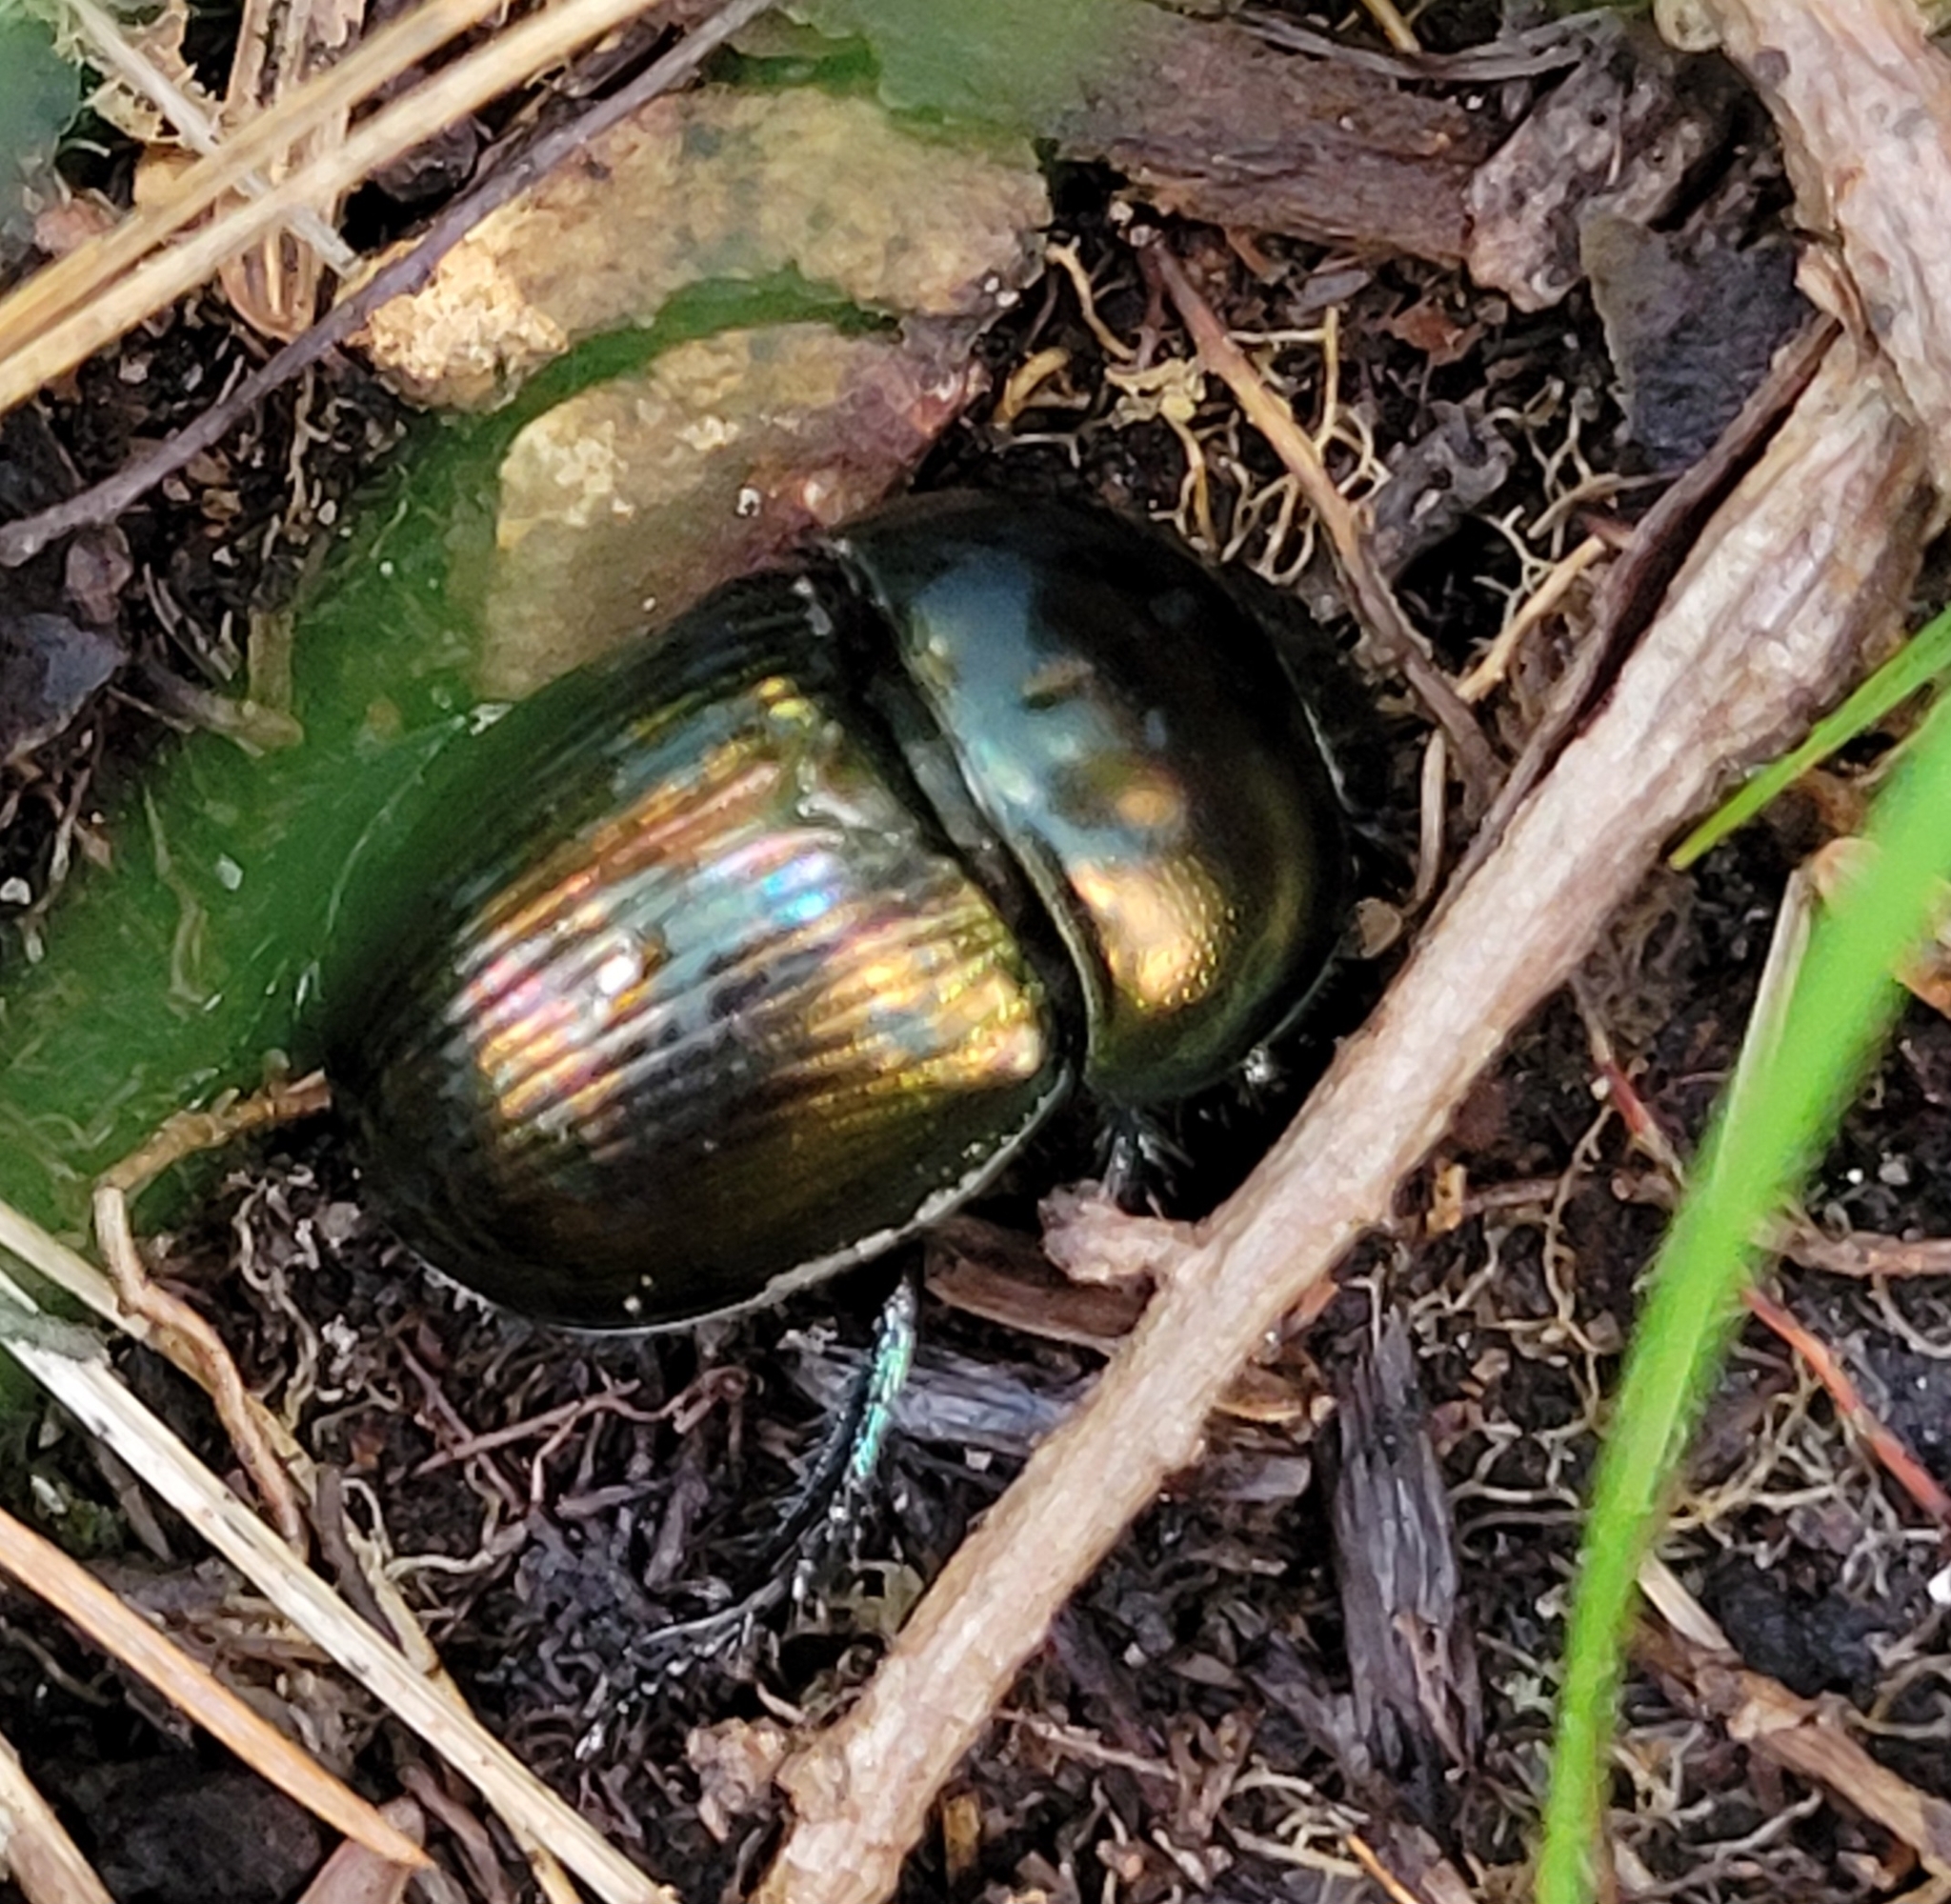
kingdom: Animalia
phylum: Arthropoda
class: Insecta
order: Coleoptera
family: Geotrupidae
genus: Geotrupes
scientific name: Geotrupes splendidus
